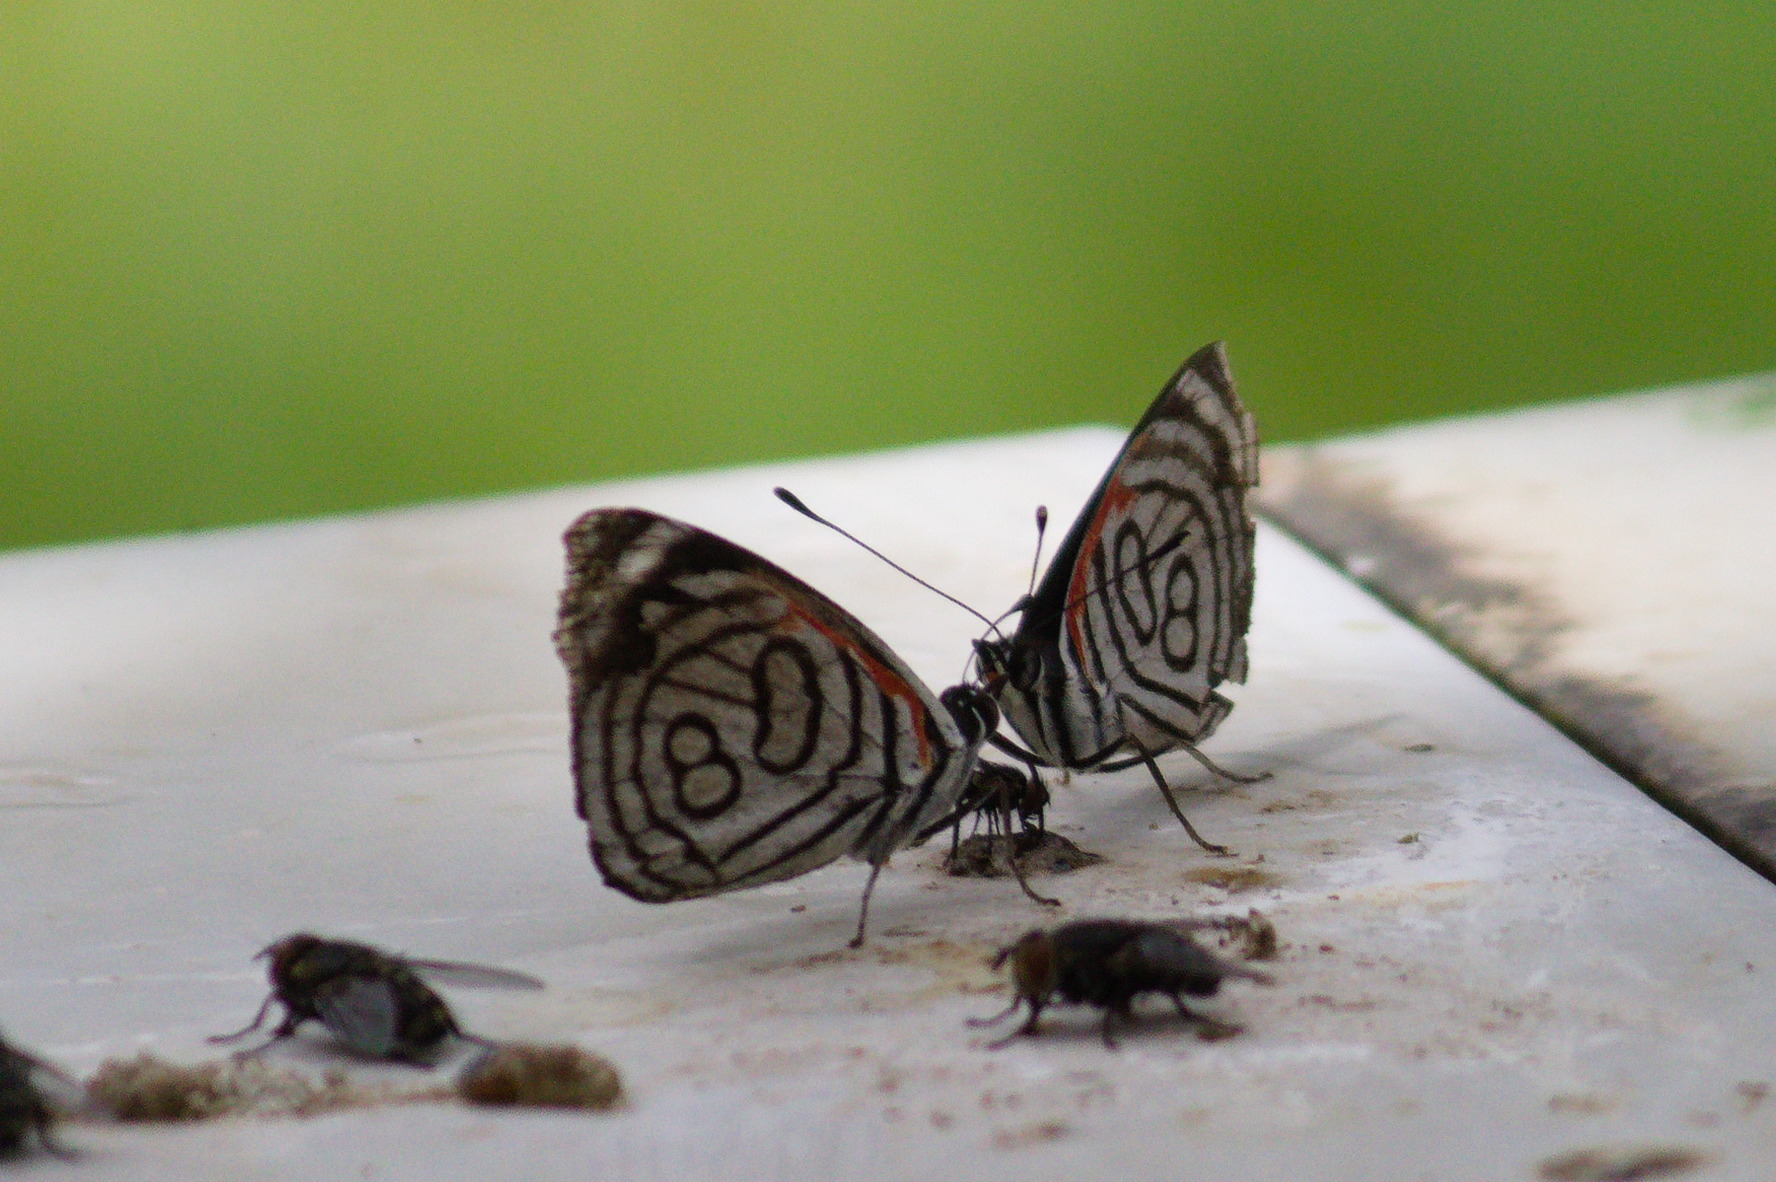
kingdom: Animalia
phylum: Arthropoda
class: Insecta
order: Lepidoptera
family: Nymphalidae
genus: Diaethria
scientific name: Diaethria candrena
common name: Number eighty
